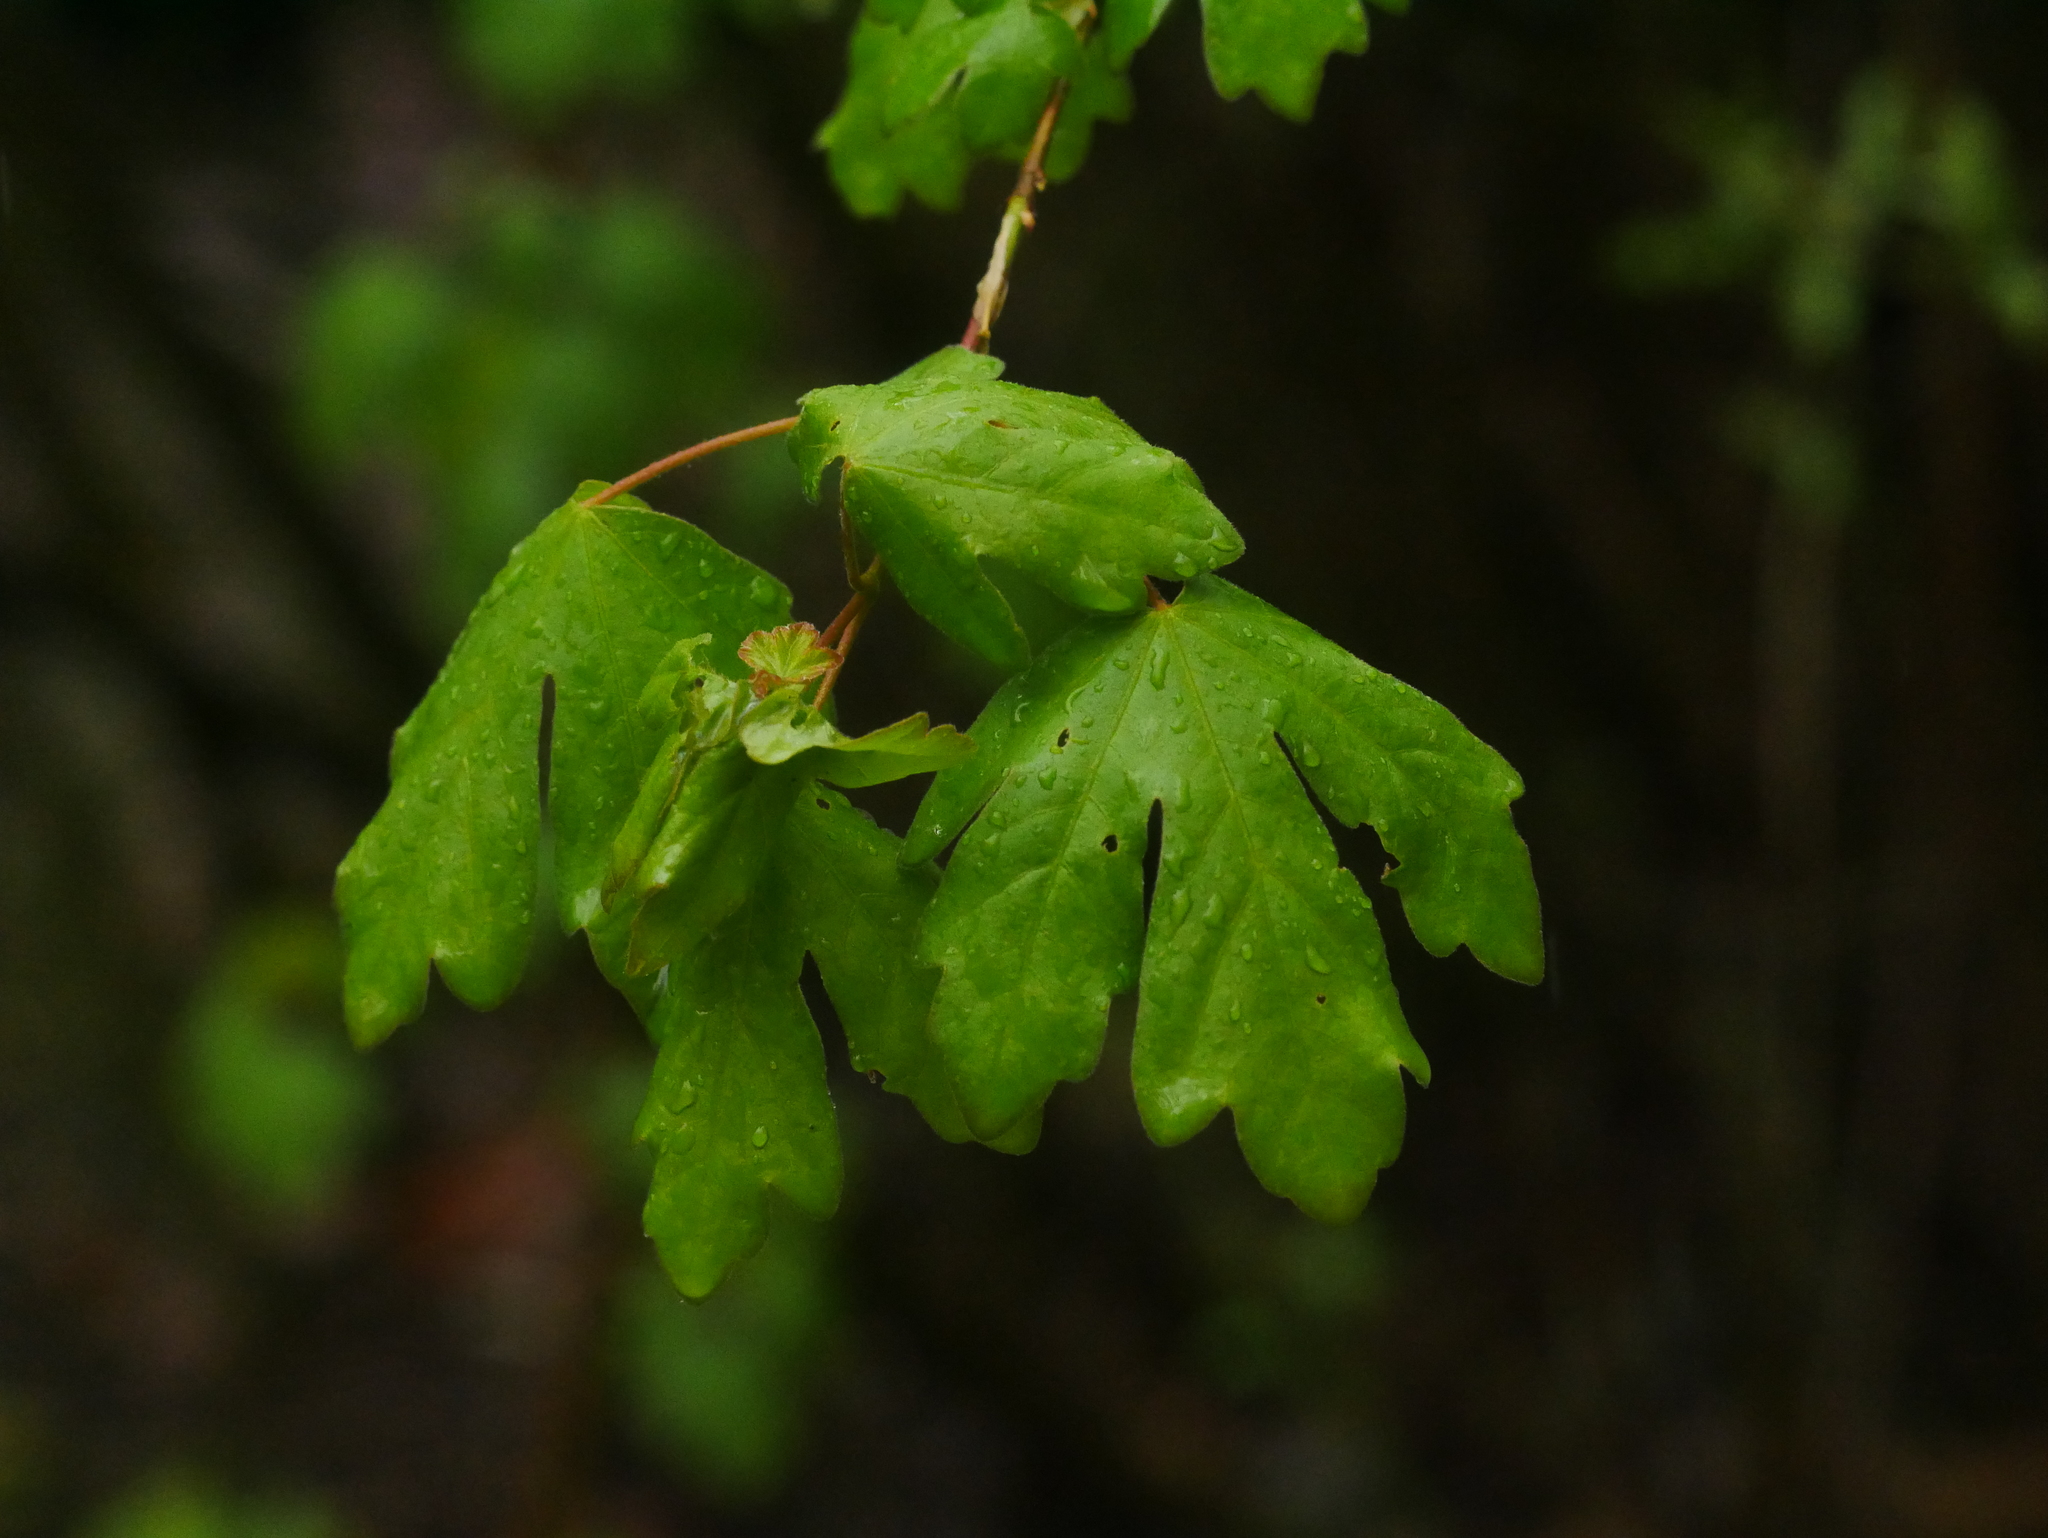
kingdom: Plantae
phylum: Tracheophyta
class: Magnoliopsida
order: Sapindales
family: Sapindaceae
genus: Acer
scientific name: Acer campestre
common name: Field maple
